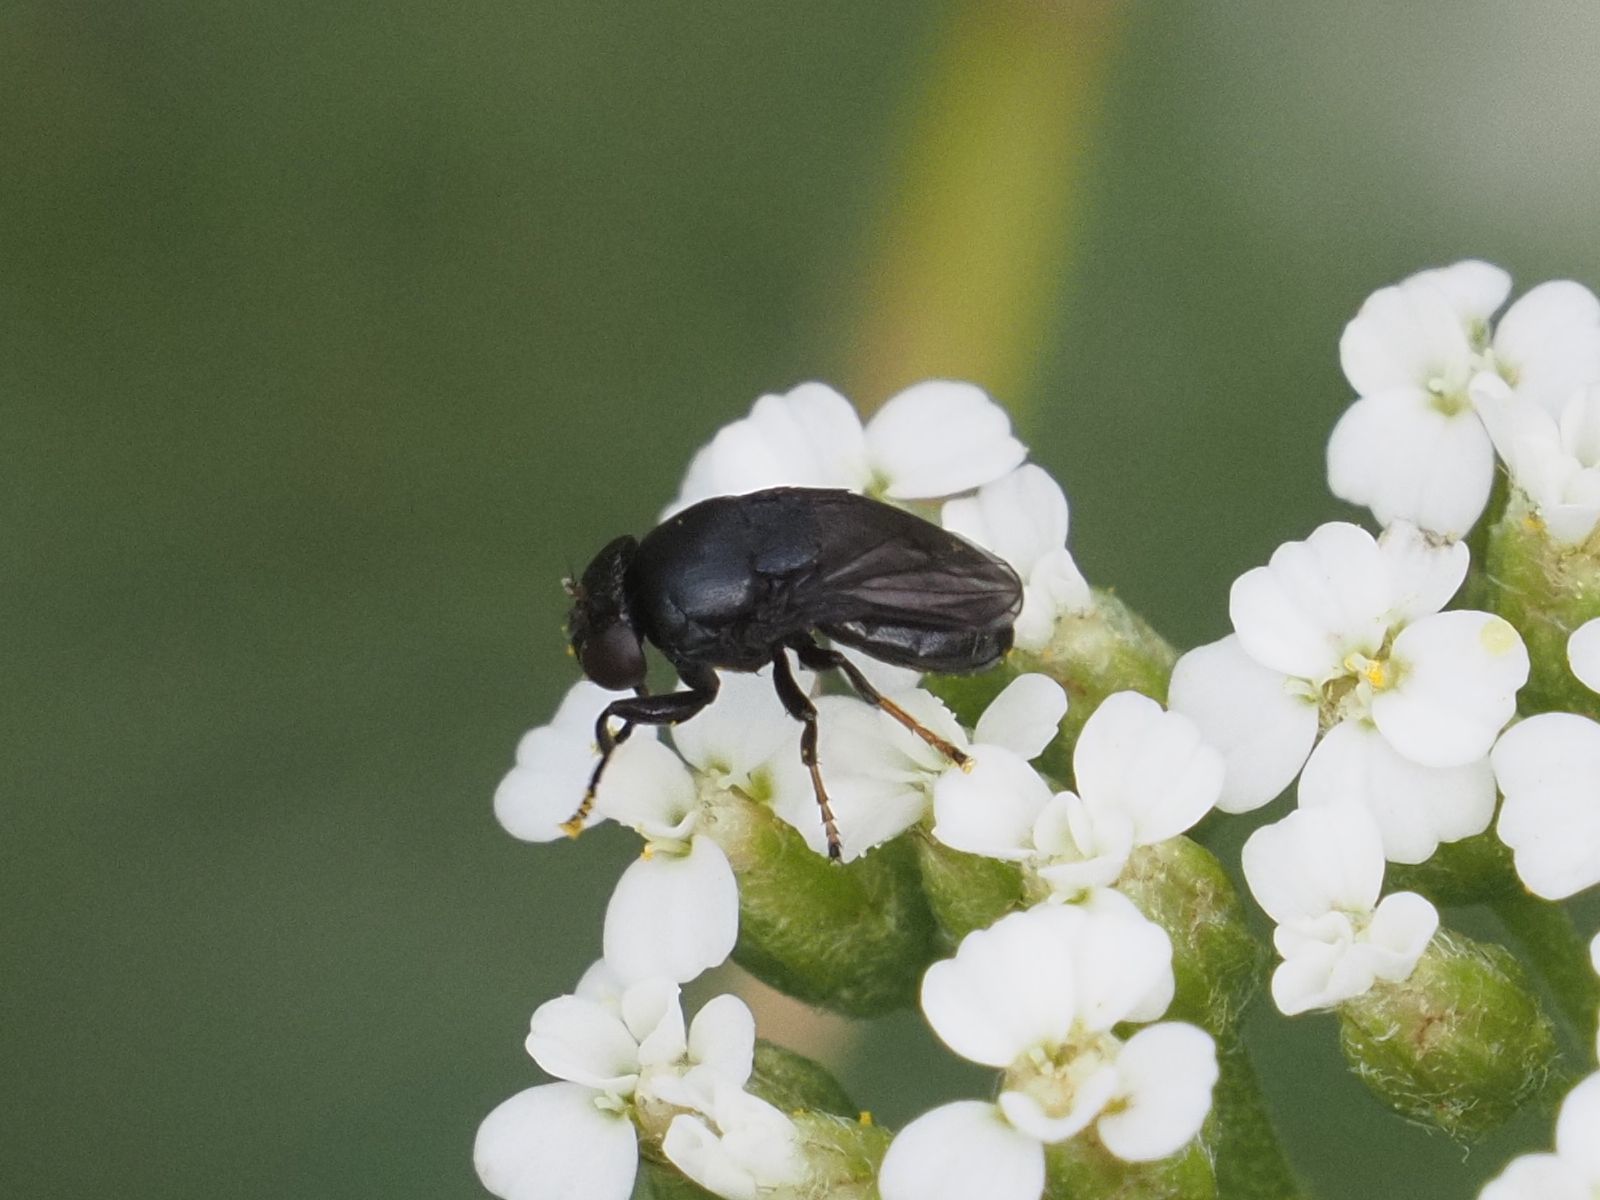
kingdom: Animalia
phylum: Arthropoda
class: Insecta
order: Diptera
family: Ephydridae
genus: Discomyza
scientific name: Discomyza incurva
